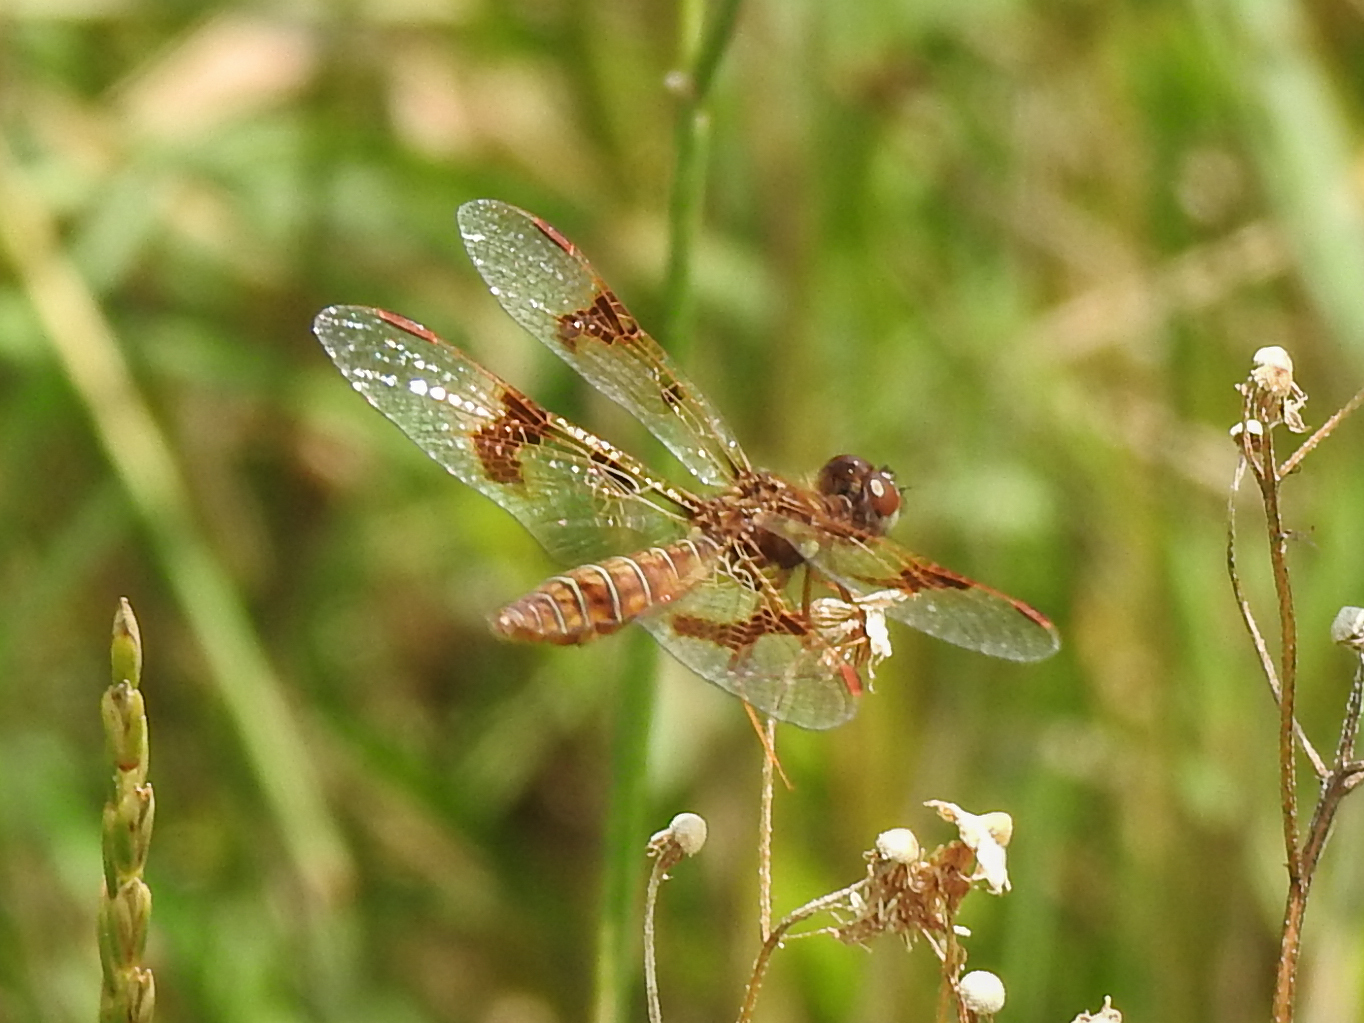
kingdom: Animalia
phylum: Arthropoda
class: Insecta
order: Odonata
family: Libellulidae
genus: Perithemis
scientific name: Perithemis tenera
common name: Eastern amberwing
